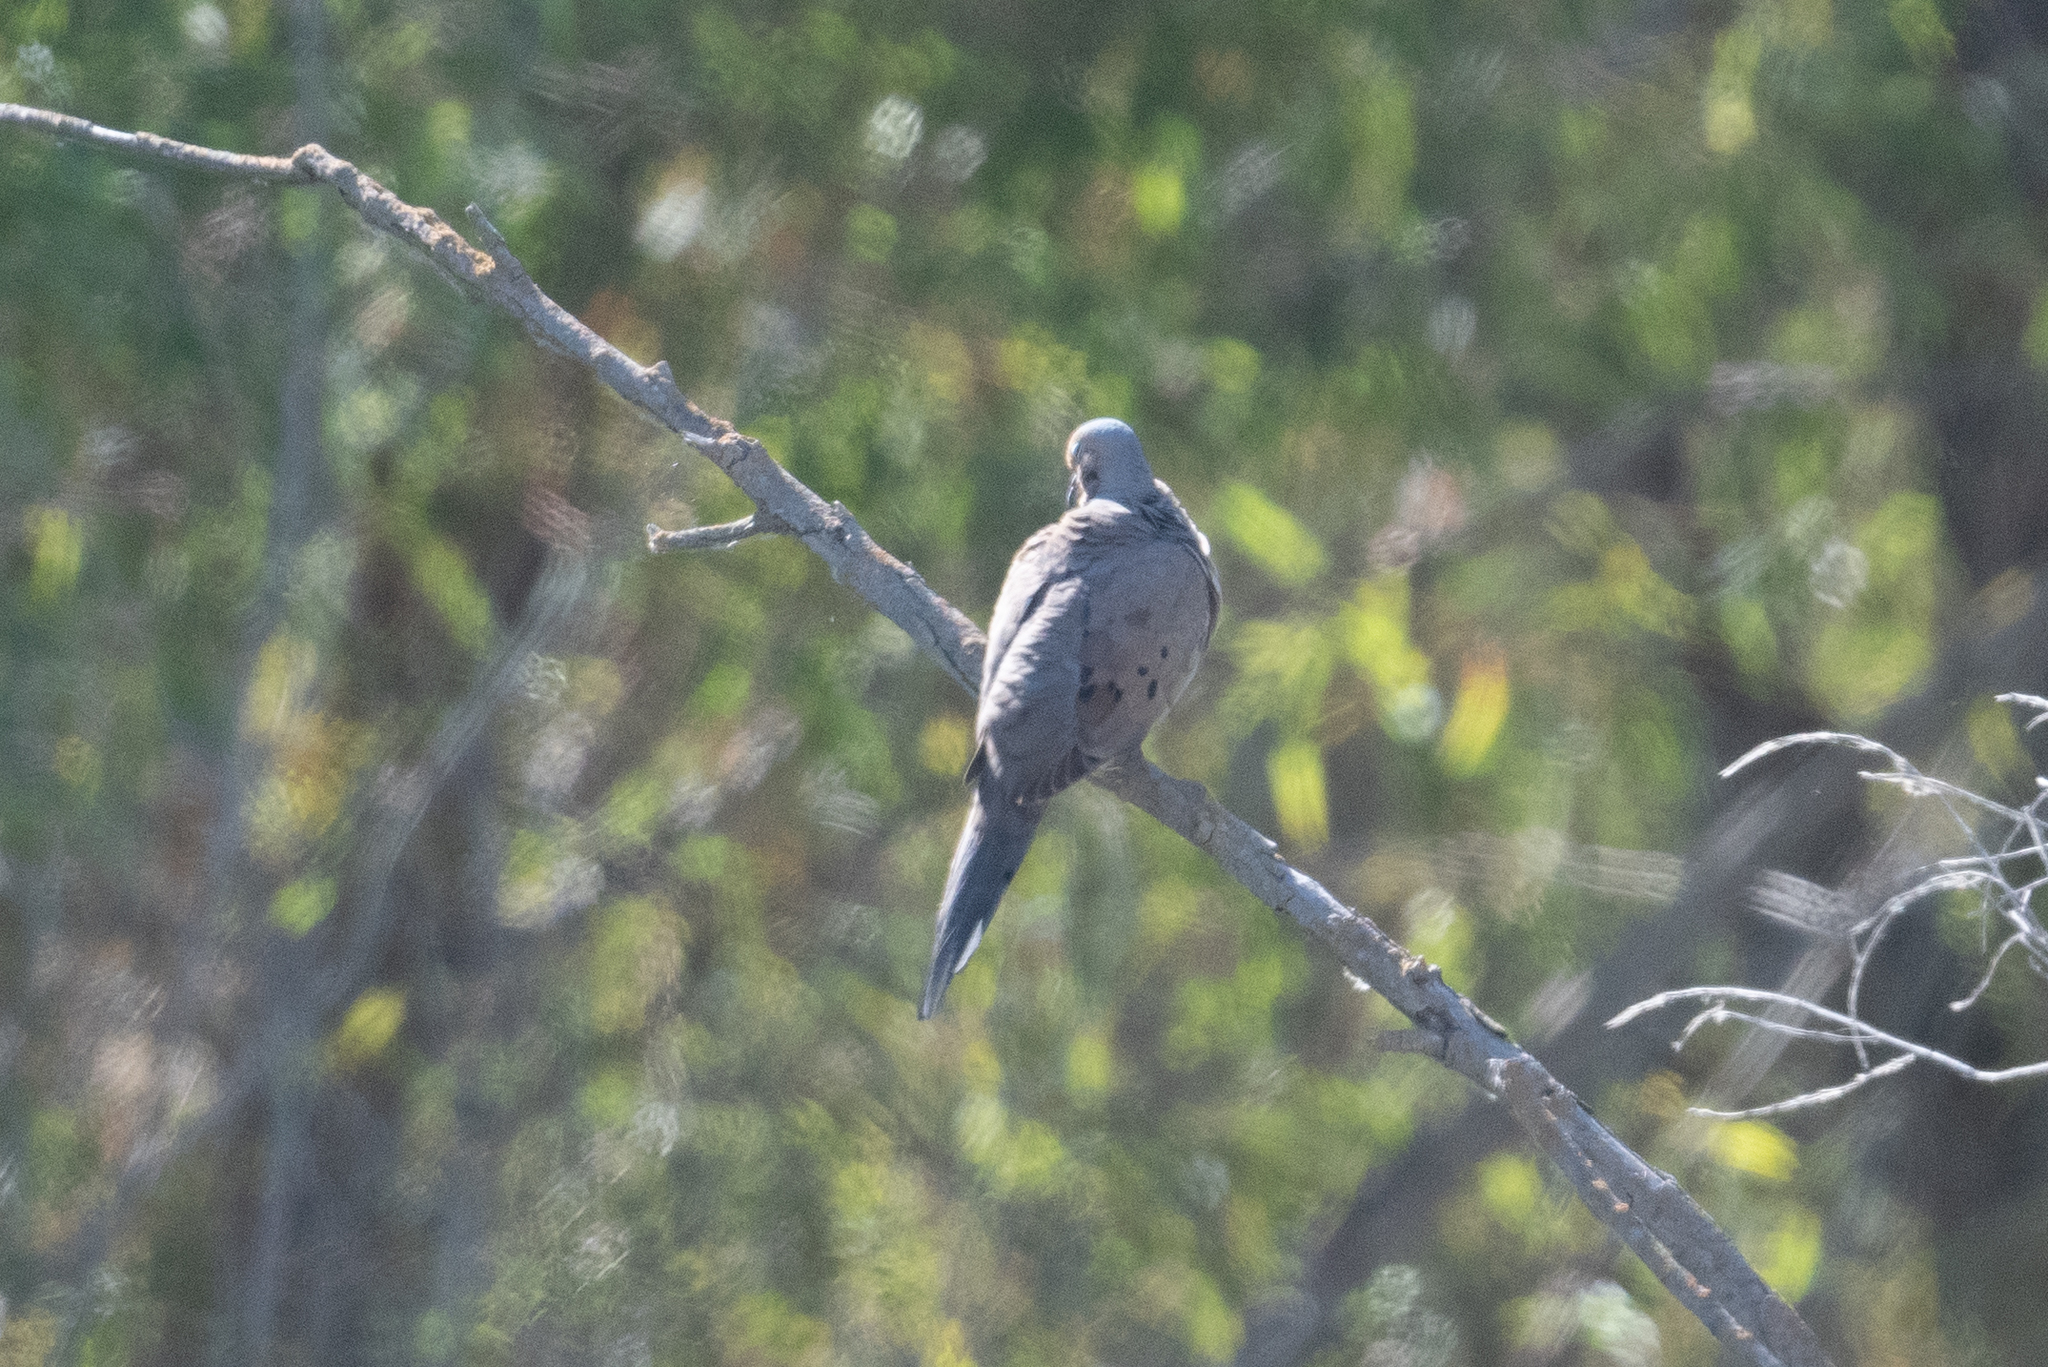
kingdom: Animalia
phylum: Chordata
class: Aves
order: Columbiformes
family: Columbidae
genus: Zenaida
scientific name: Zenaida macroura
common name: Mourning dove
